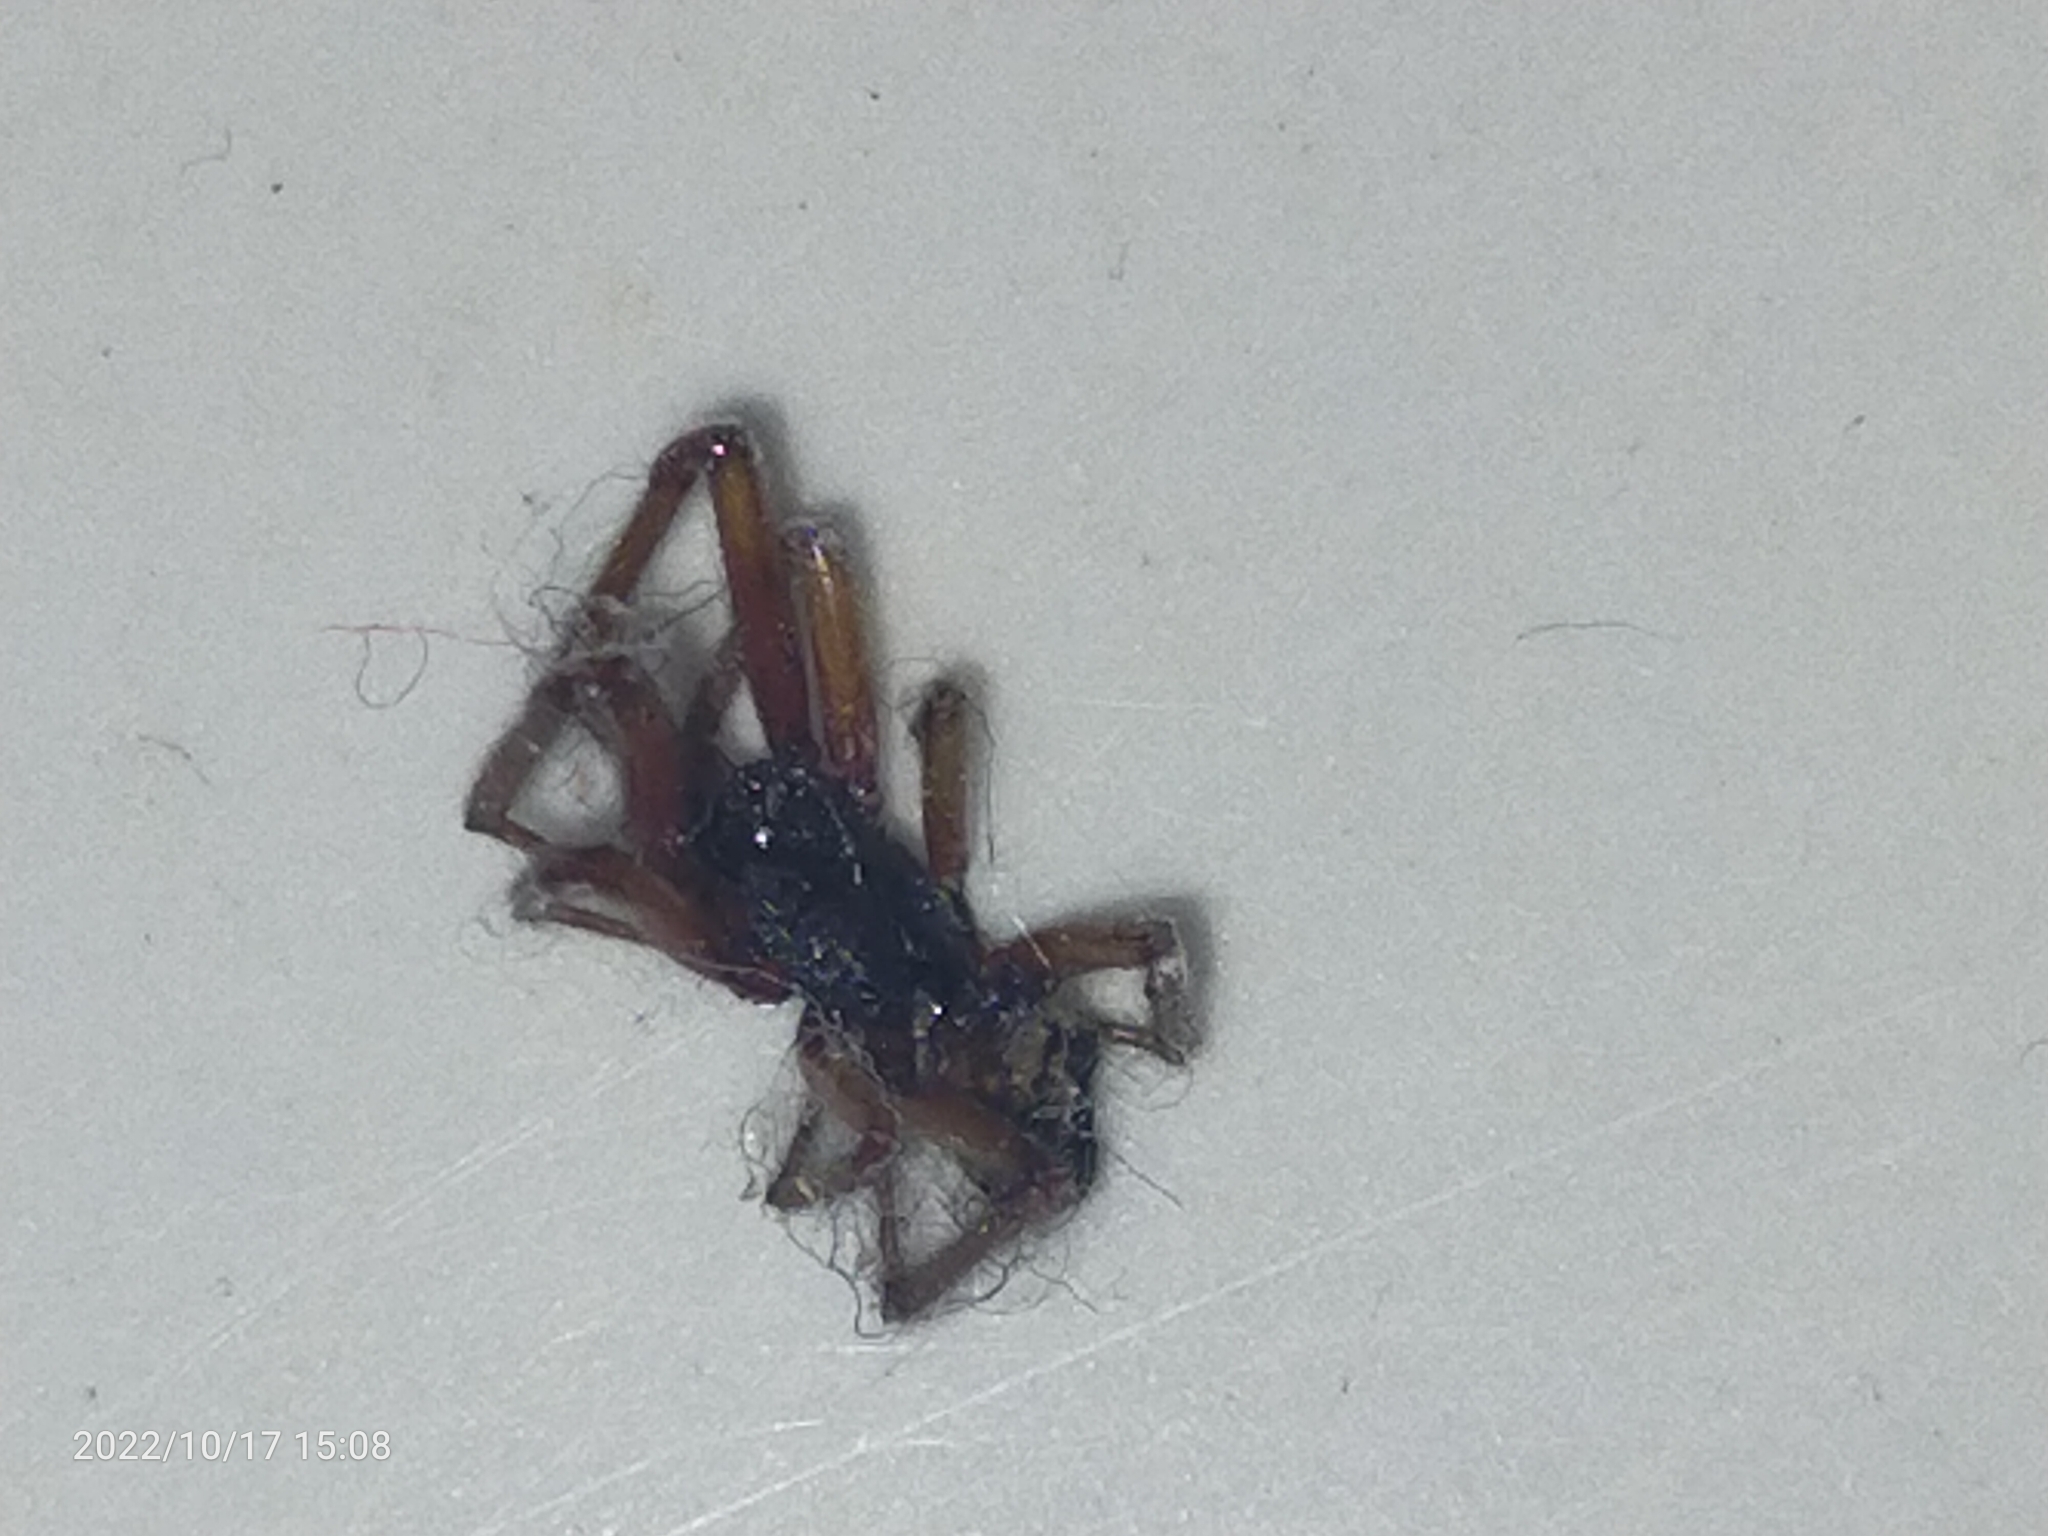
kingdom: Animalia
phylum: Arthropoda
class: Arachnida
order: Araneae
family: Theridiidae
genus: Steatoda
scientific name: Steatoda
